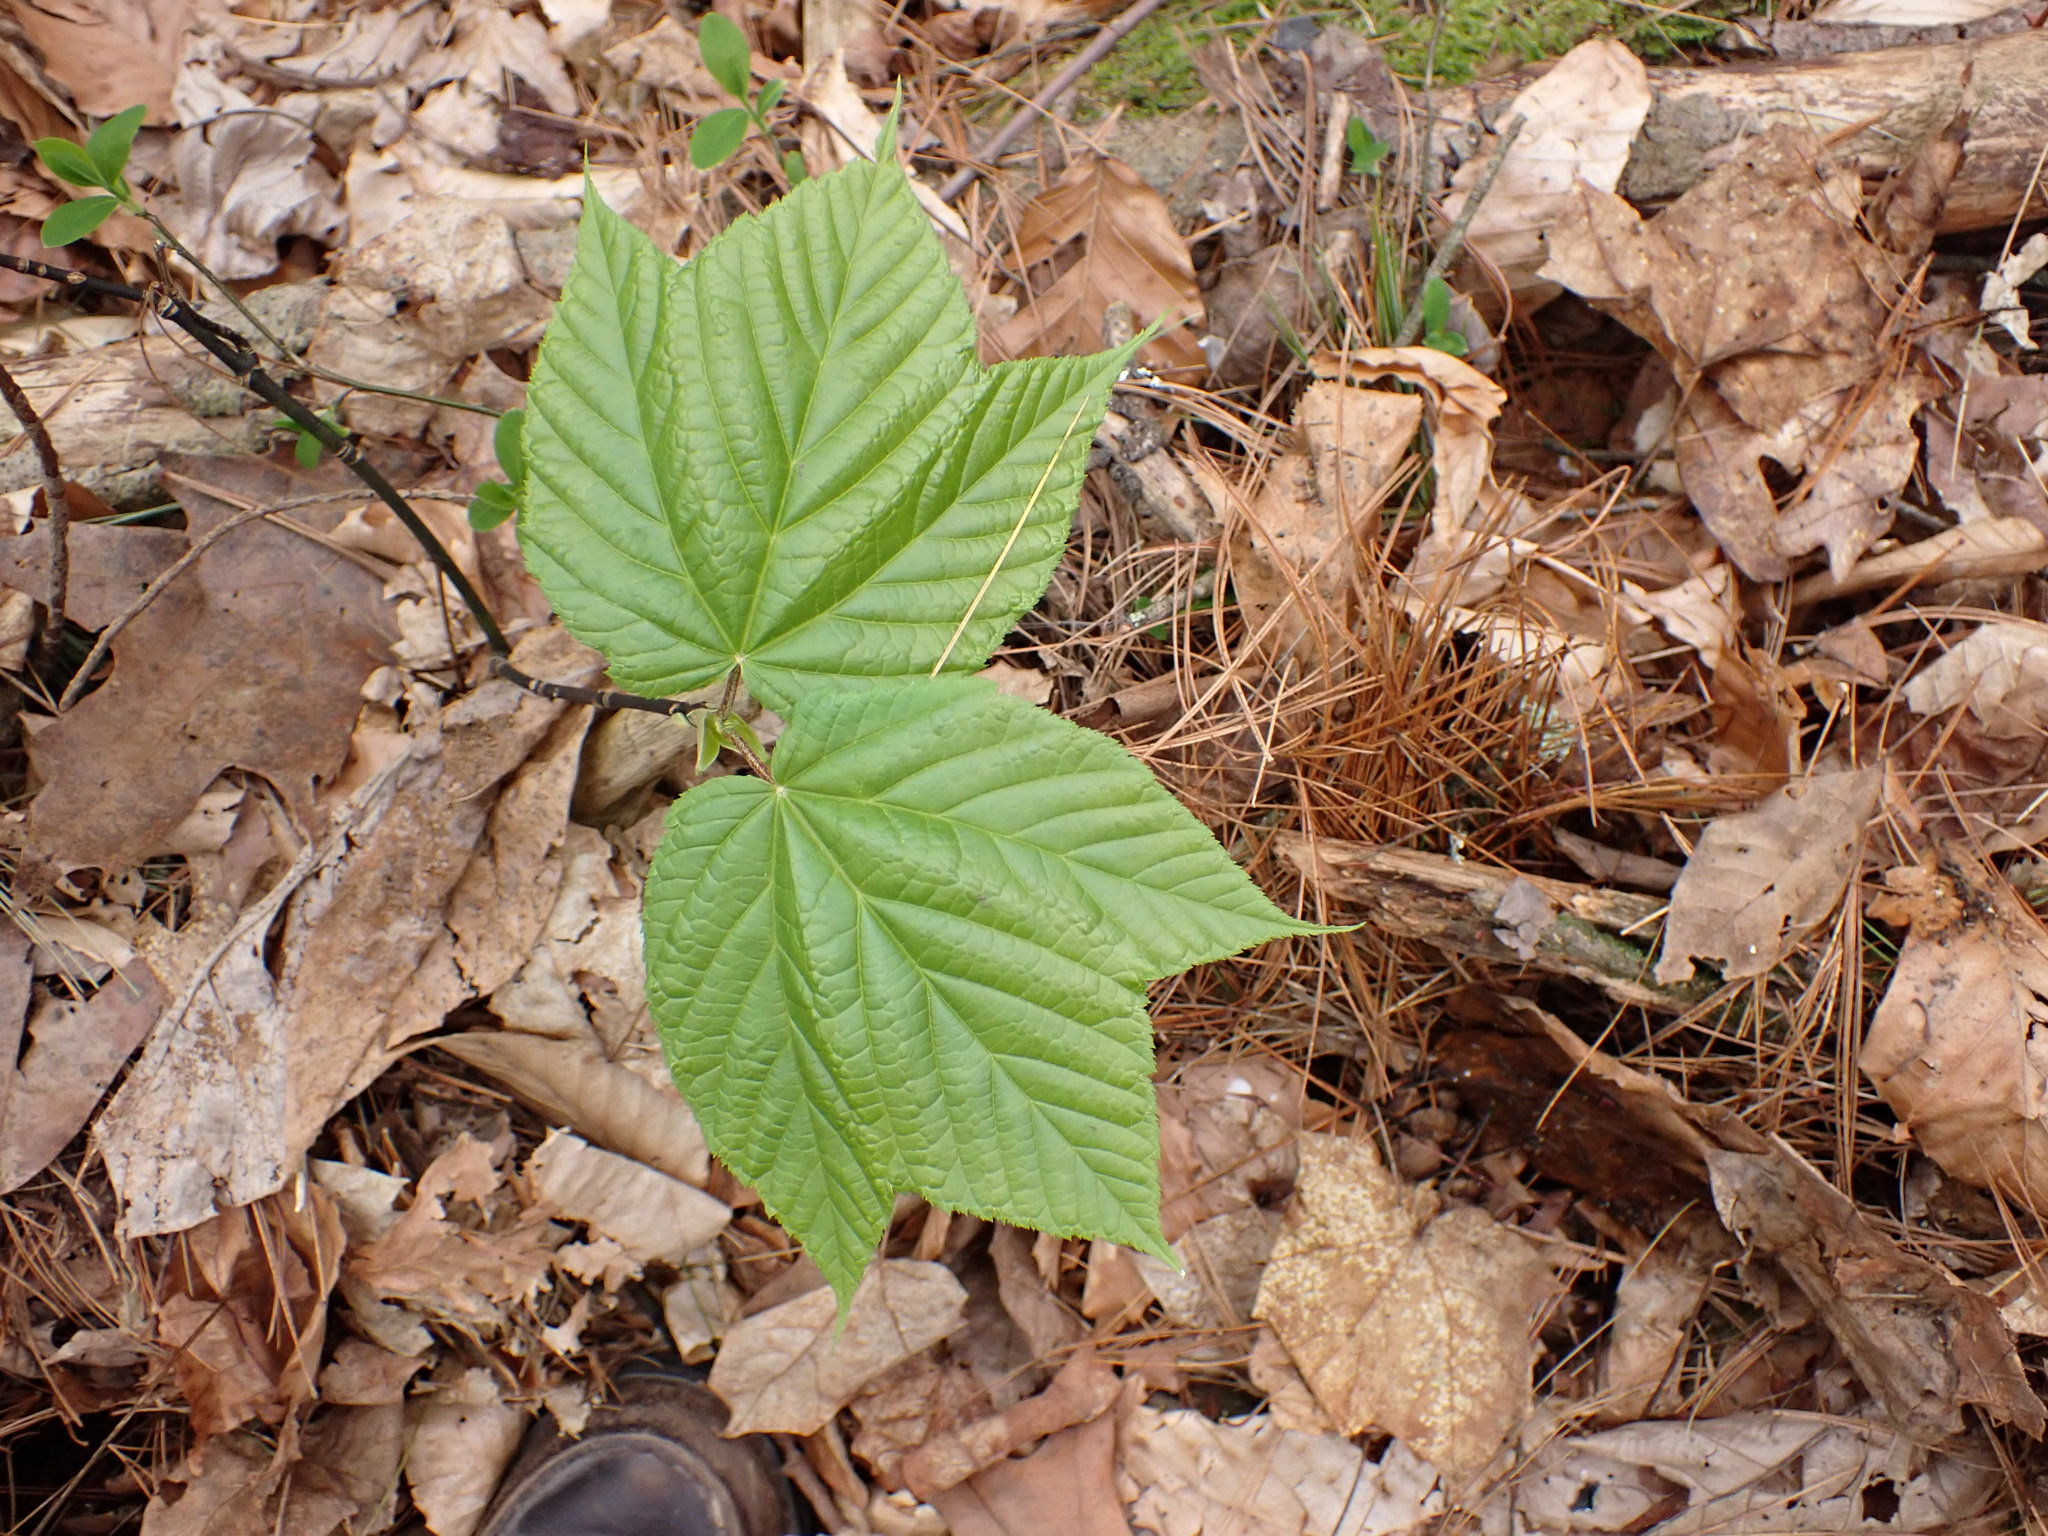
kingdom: Plantae
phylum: Tracheophyta
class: Magnoliopsida
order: Sapindales
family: Sapindaceae
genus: Acer
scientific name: Acer pensylvanicum
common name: Moosewood
